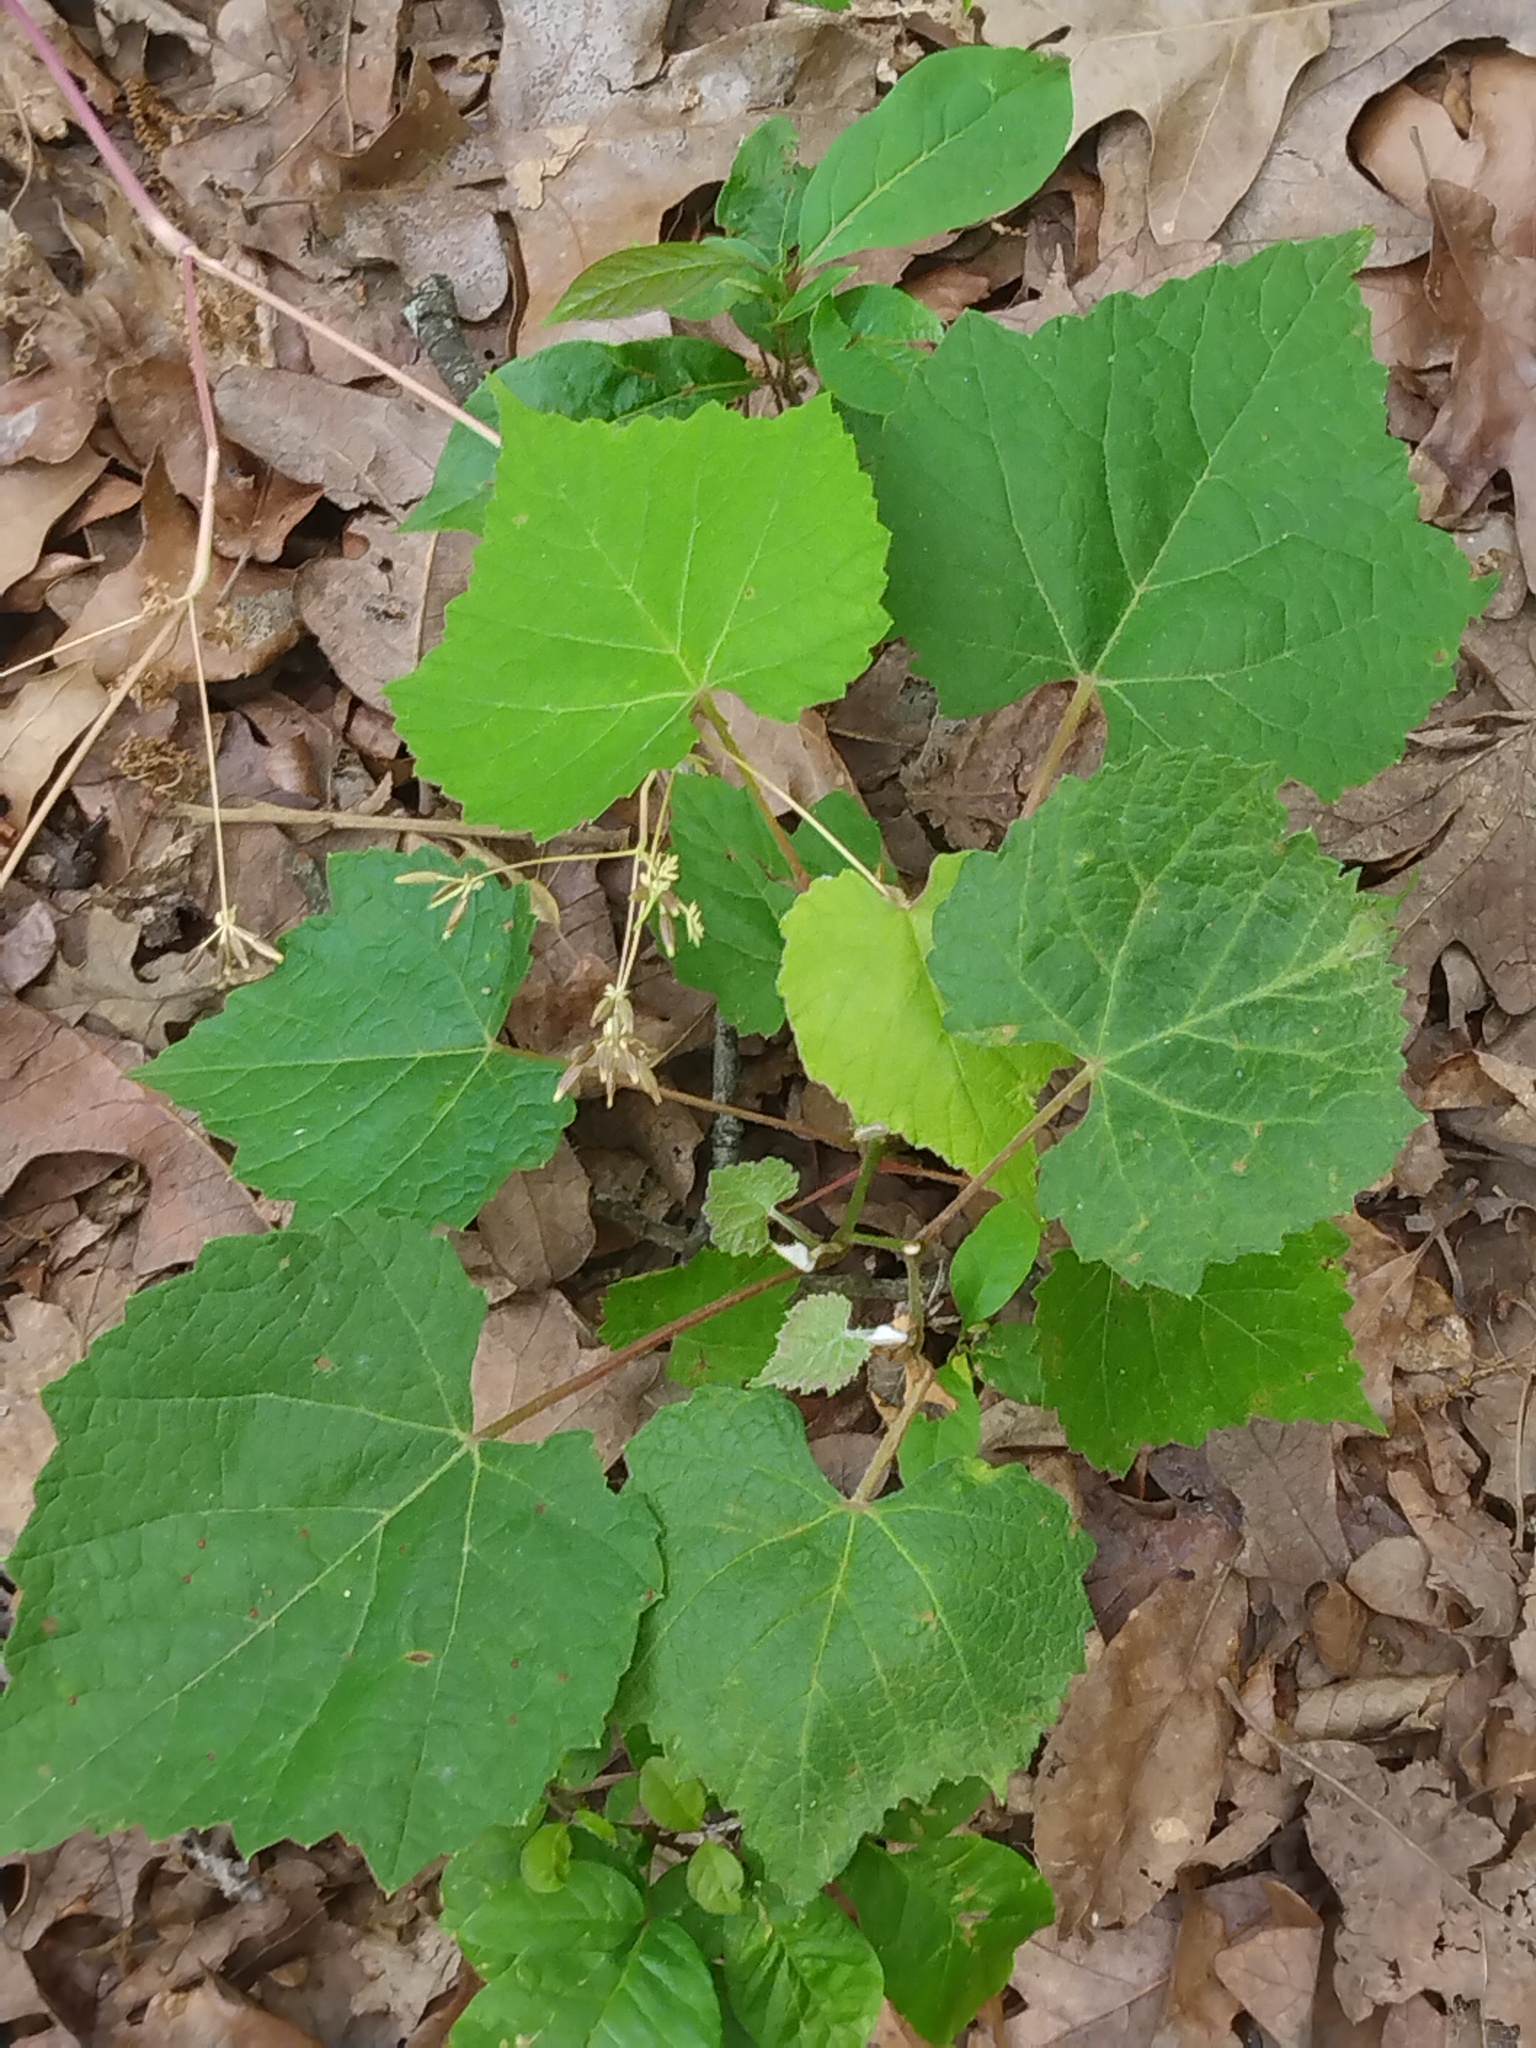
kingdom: Plantae
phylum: Tracheophyta
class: Magnoliopsida
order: Vitales
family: Vitaceae
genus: Vitis
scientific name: Vitis rotundifolia
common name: Muscadine grape
